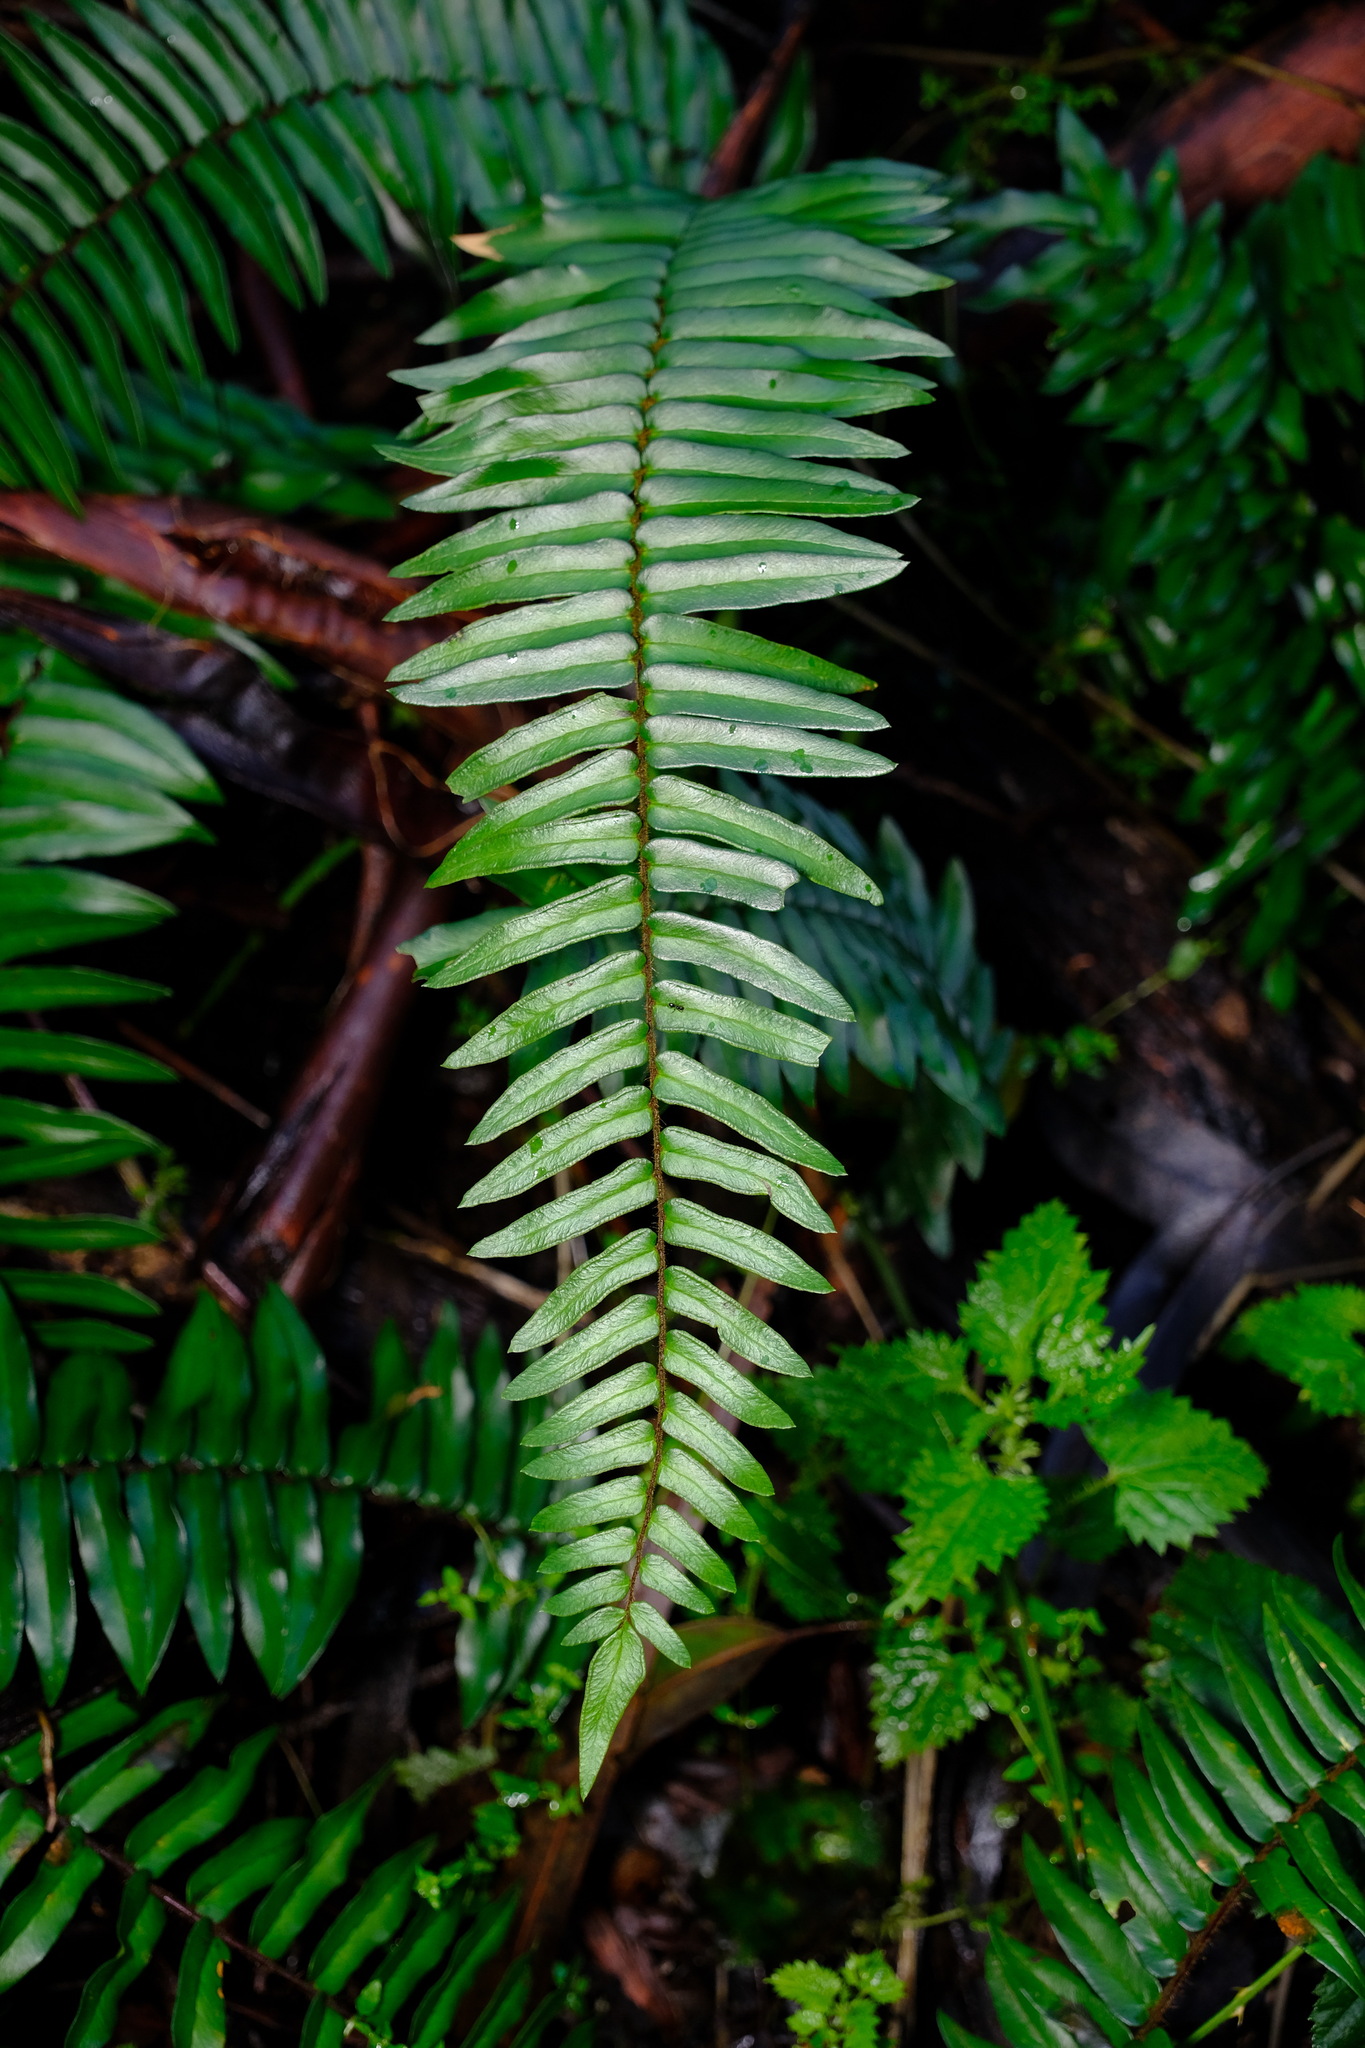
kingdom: Plantae
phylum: Tracheophyta
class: Polypodiopsida
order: Polypodiales
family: Pteridaceae
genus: Pellaea
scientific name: Pellaea falcata
